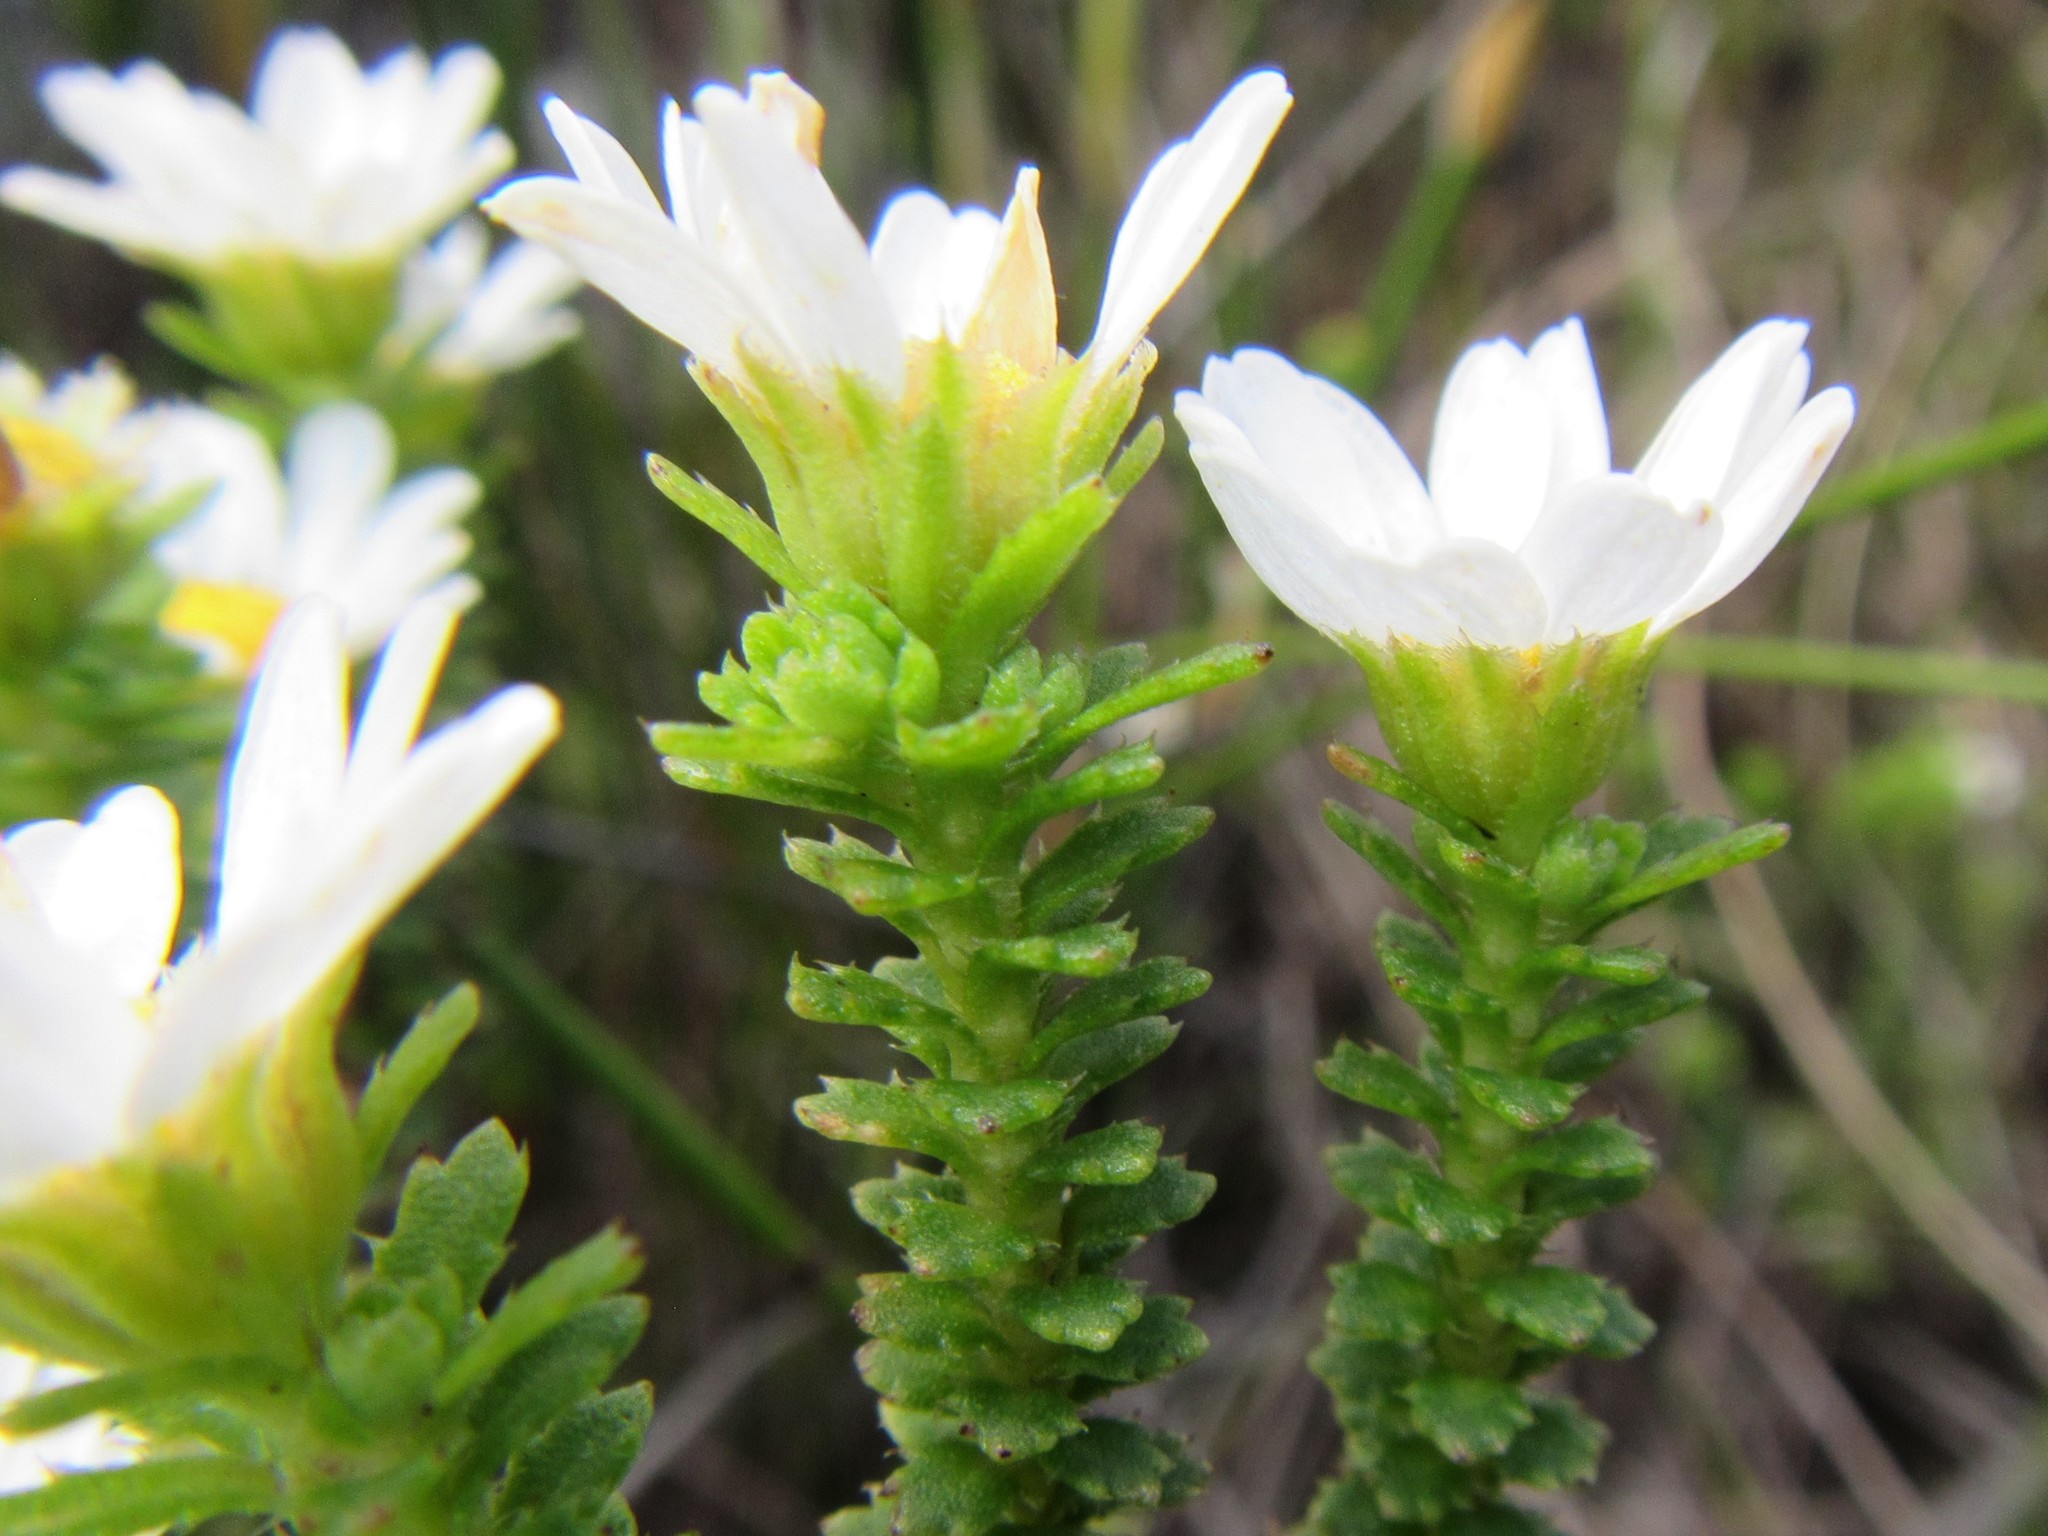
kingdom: Plantae
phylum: Tracheophyta
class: Magnoliopsida
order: Asterales
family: Asteraceae
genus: Osmitopsis
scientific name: Osmitopsis parvifolia
